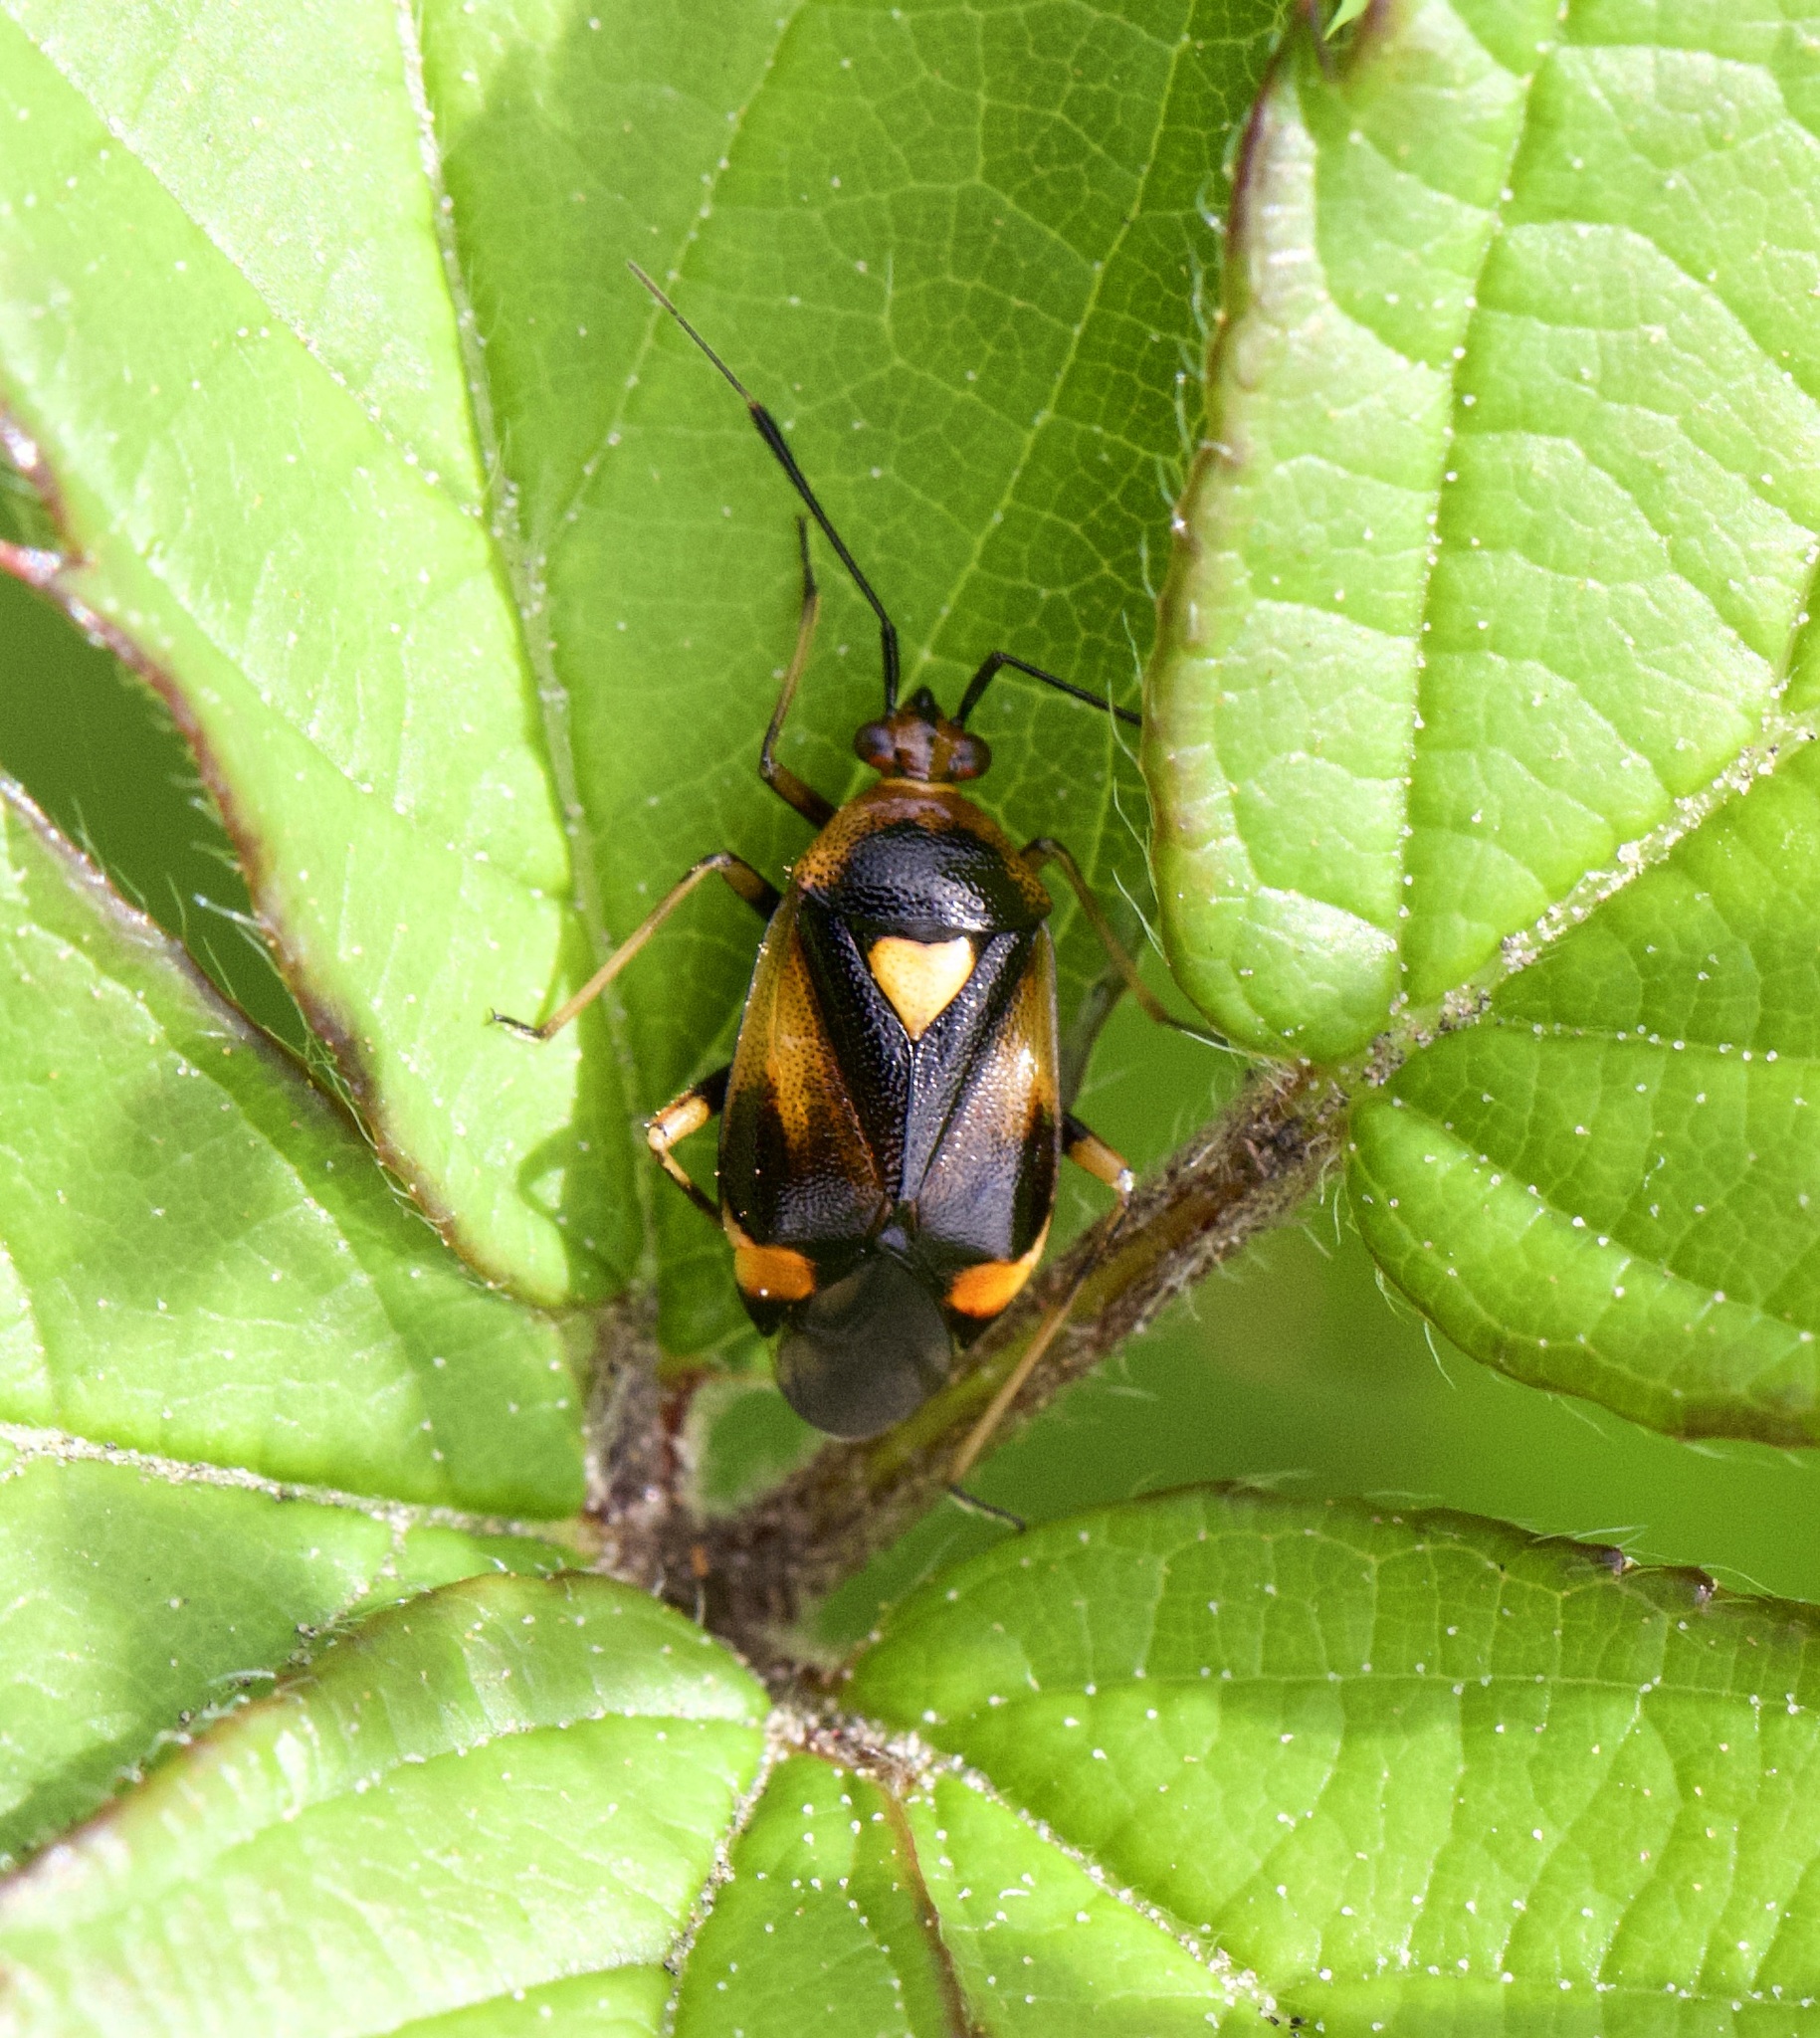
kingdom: Animalia
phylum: Arthropoda
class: Insecta
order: Hemiptera
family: Miridae
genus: Deraeocoris
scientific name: Deraeocoris ruber
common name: Plant bug
